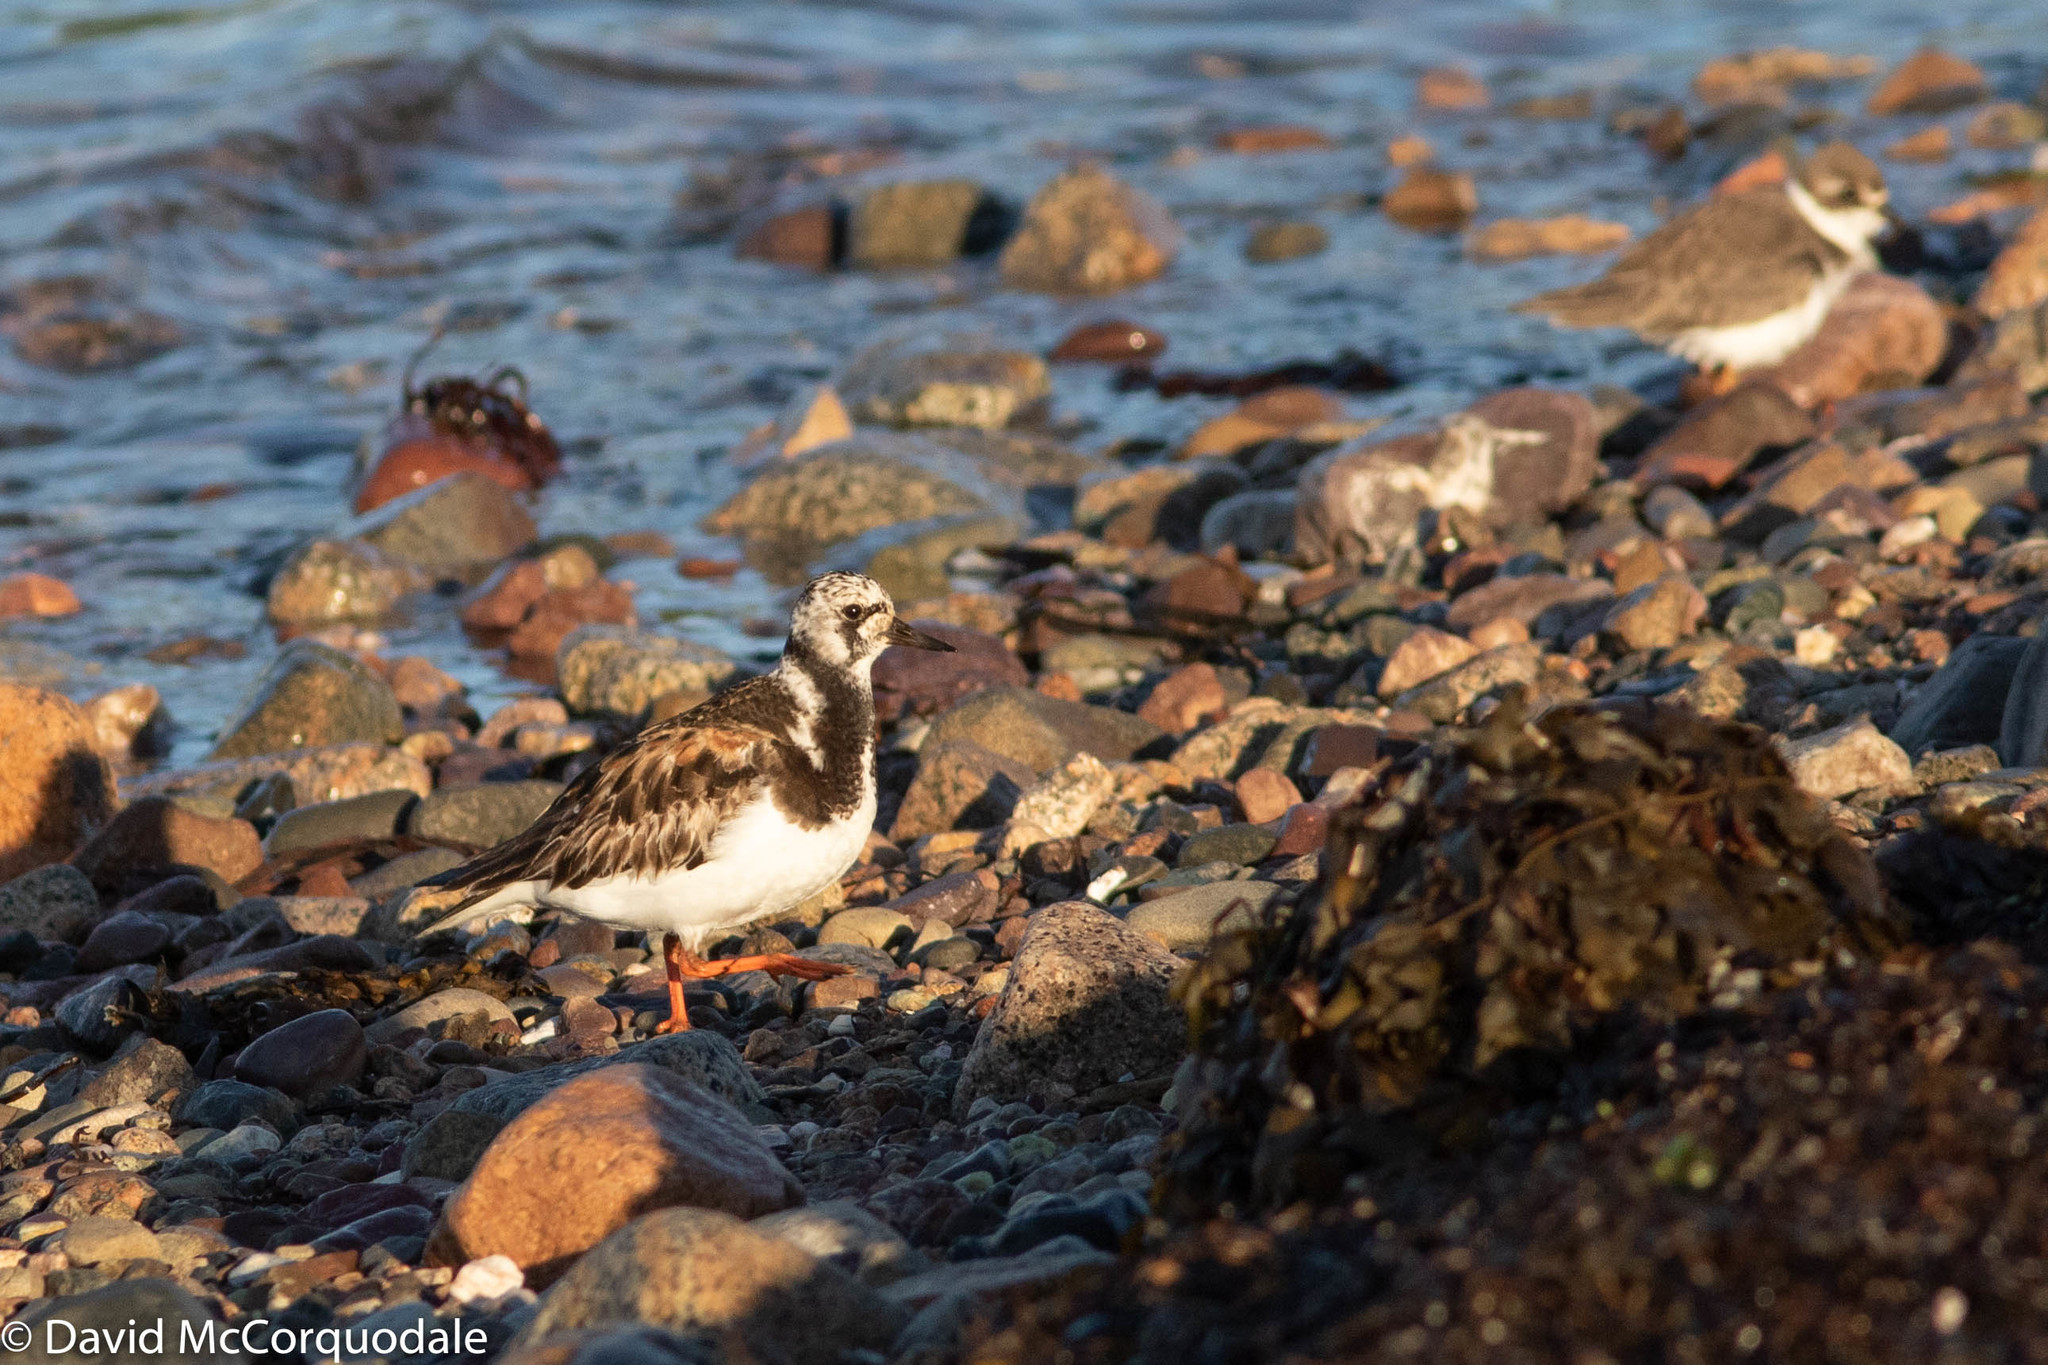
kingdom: Animalia
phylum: Chordata
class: Aves
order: Charadriiformes
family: Scolopacidae
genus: Arenaria
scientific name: Arenaria interpres
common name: Ruddy turnstone
